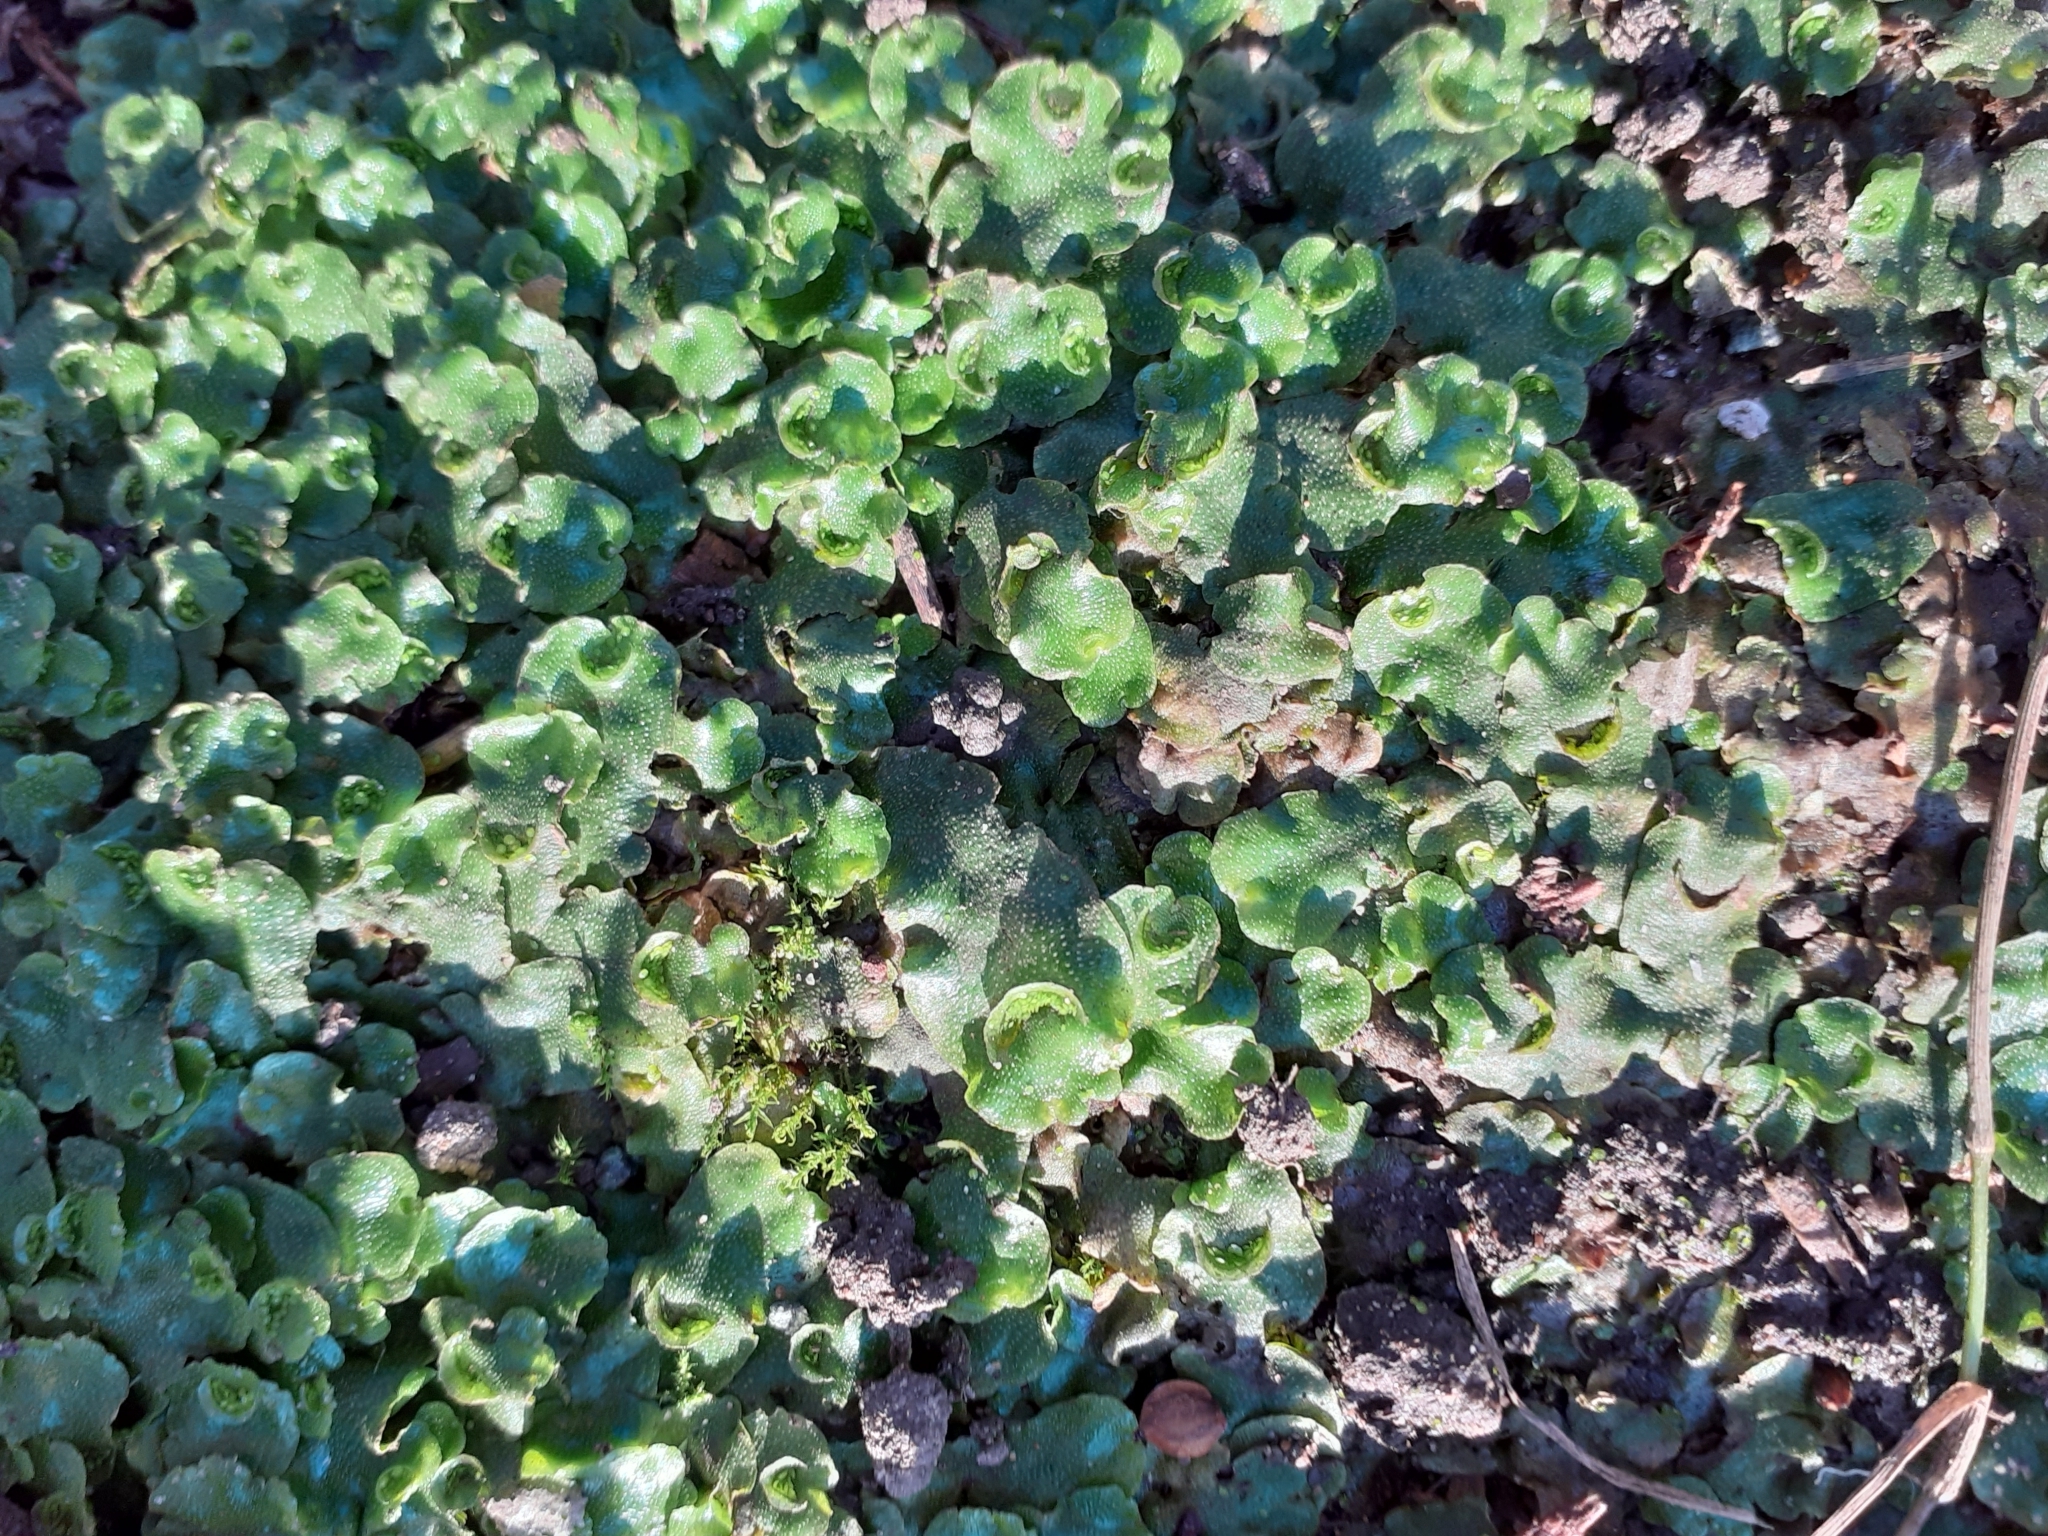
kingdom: Plantae
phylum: Marchantiophyta
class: Marchantiopsida
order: Lunulariales
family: Lunulariaceae
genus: Lunularia
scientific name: Lunularia cruciata
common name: Crescent-cup liverwort
